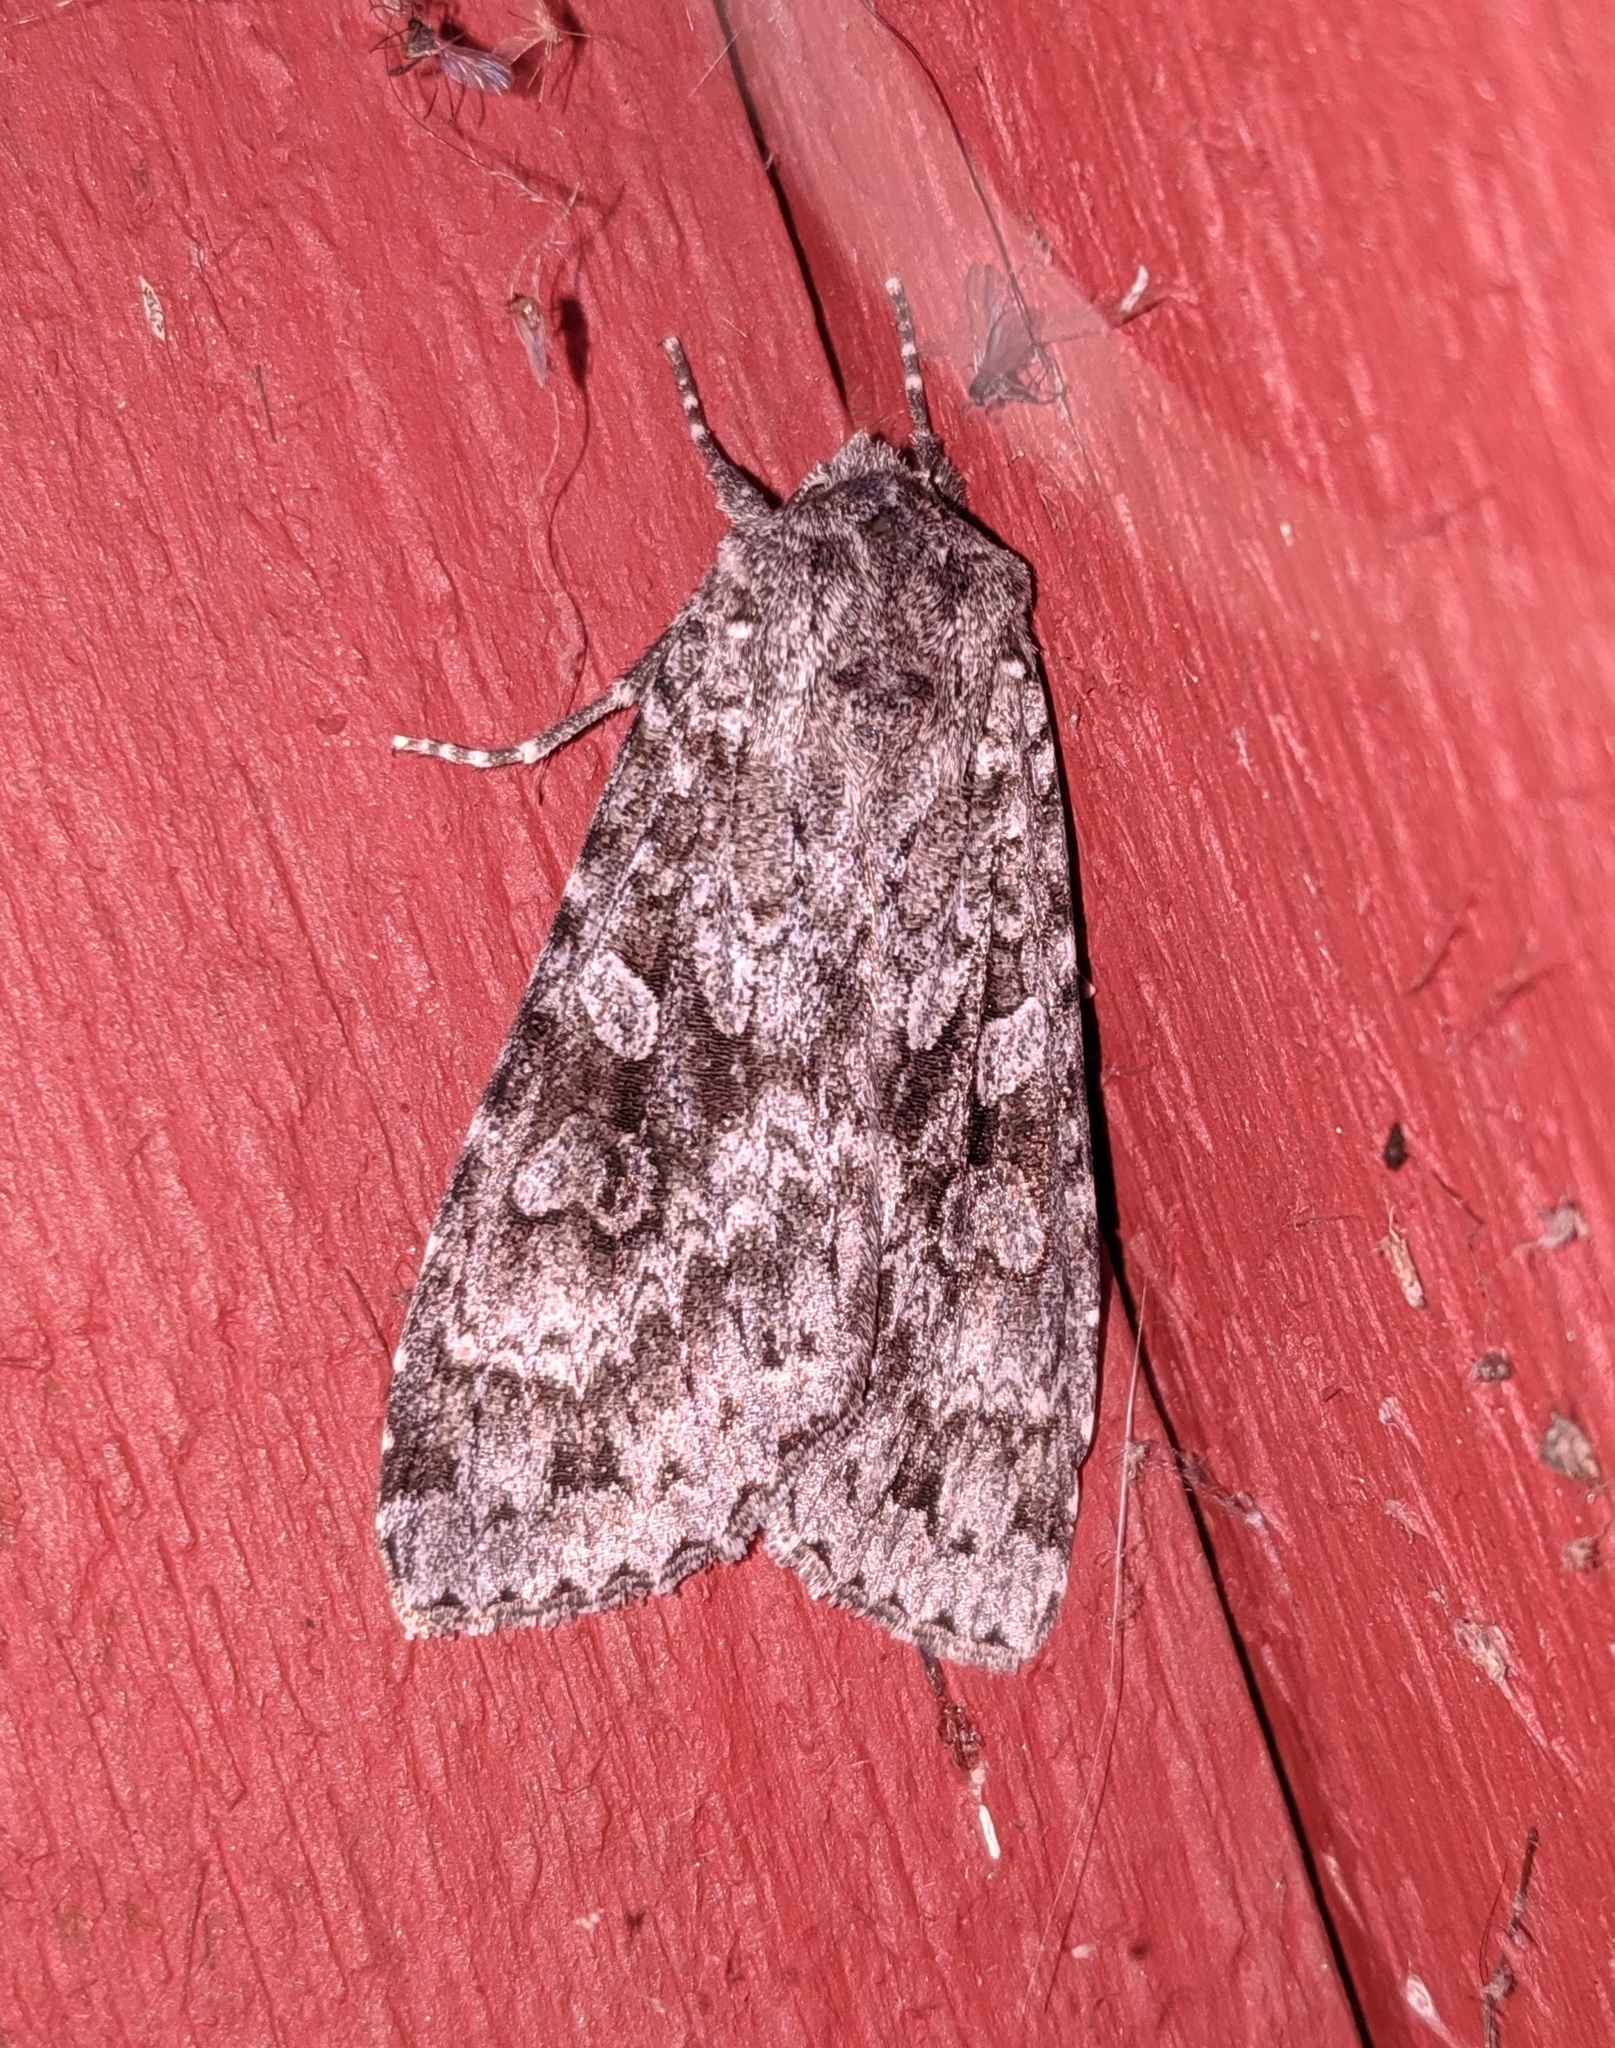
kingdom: Animalia
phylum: Arthropoda
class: Insecta
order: Lepidoptera
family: Noctuidae
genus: Eurois
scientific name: Eurois occulta
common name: Great brocade
